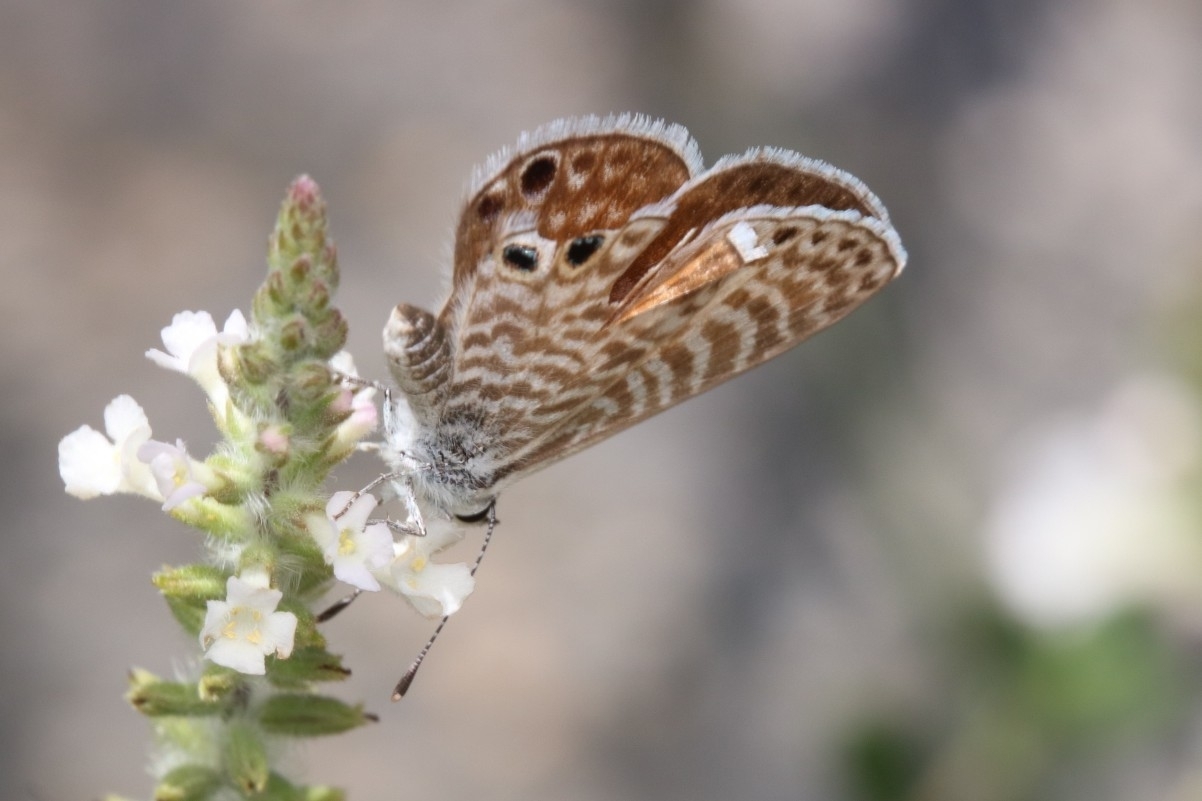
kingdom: Animalia
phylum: Arthropoda
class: Insecta
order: Lepidoptera
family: Lycaenidae
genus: Leptotes
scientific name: Leptotes marina
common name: Marine blue
